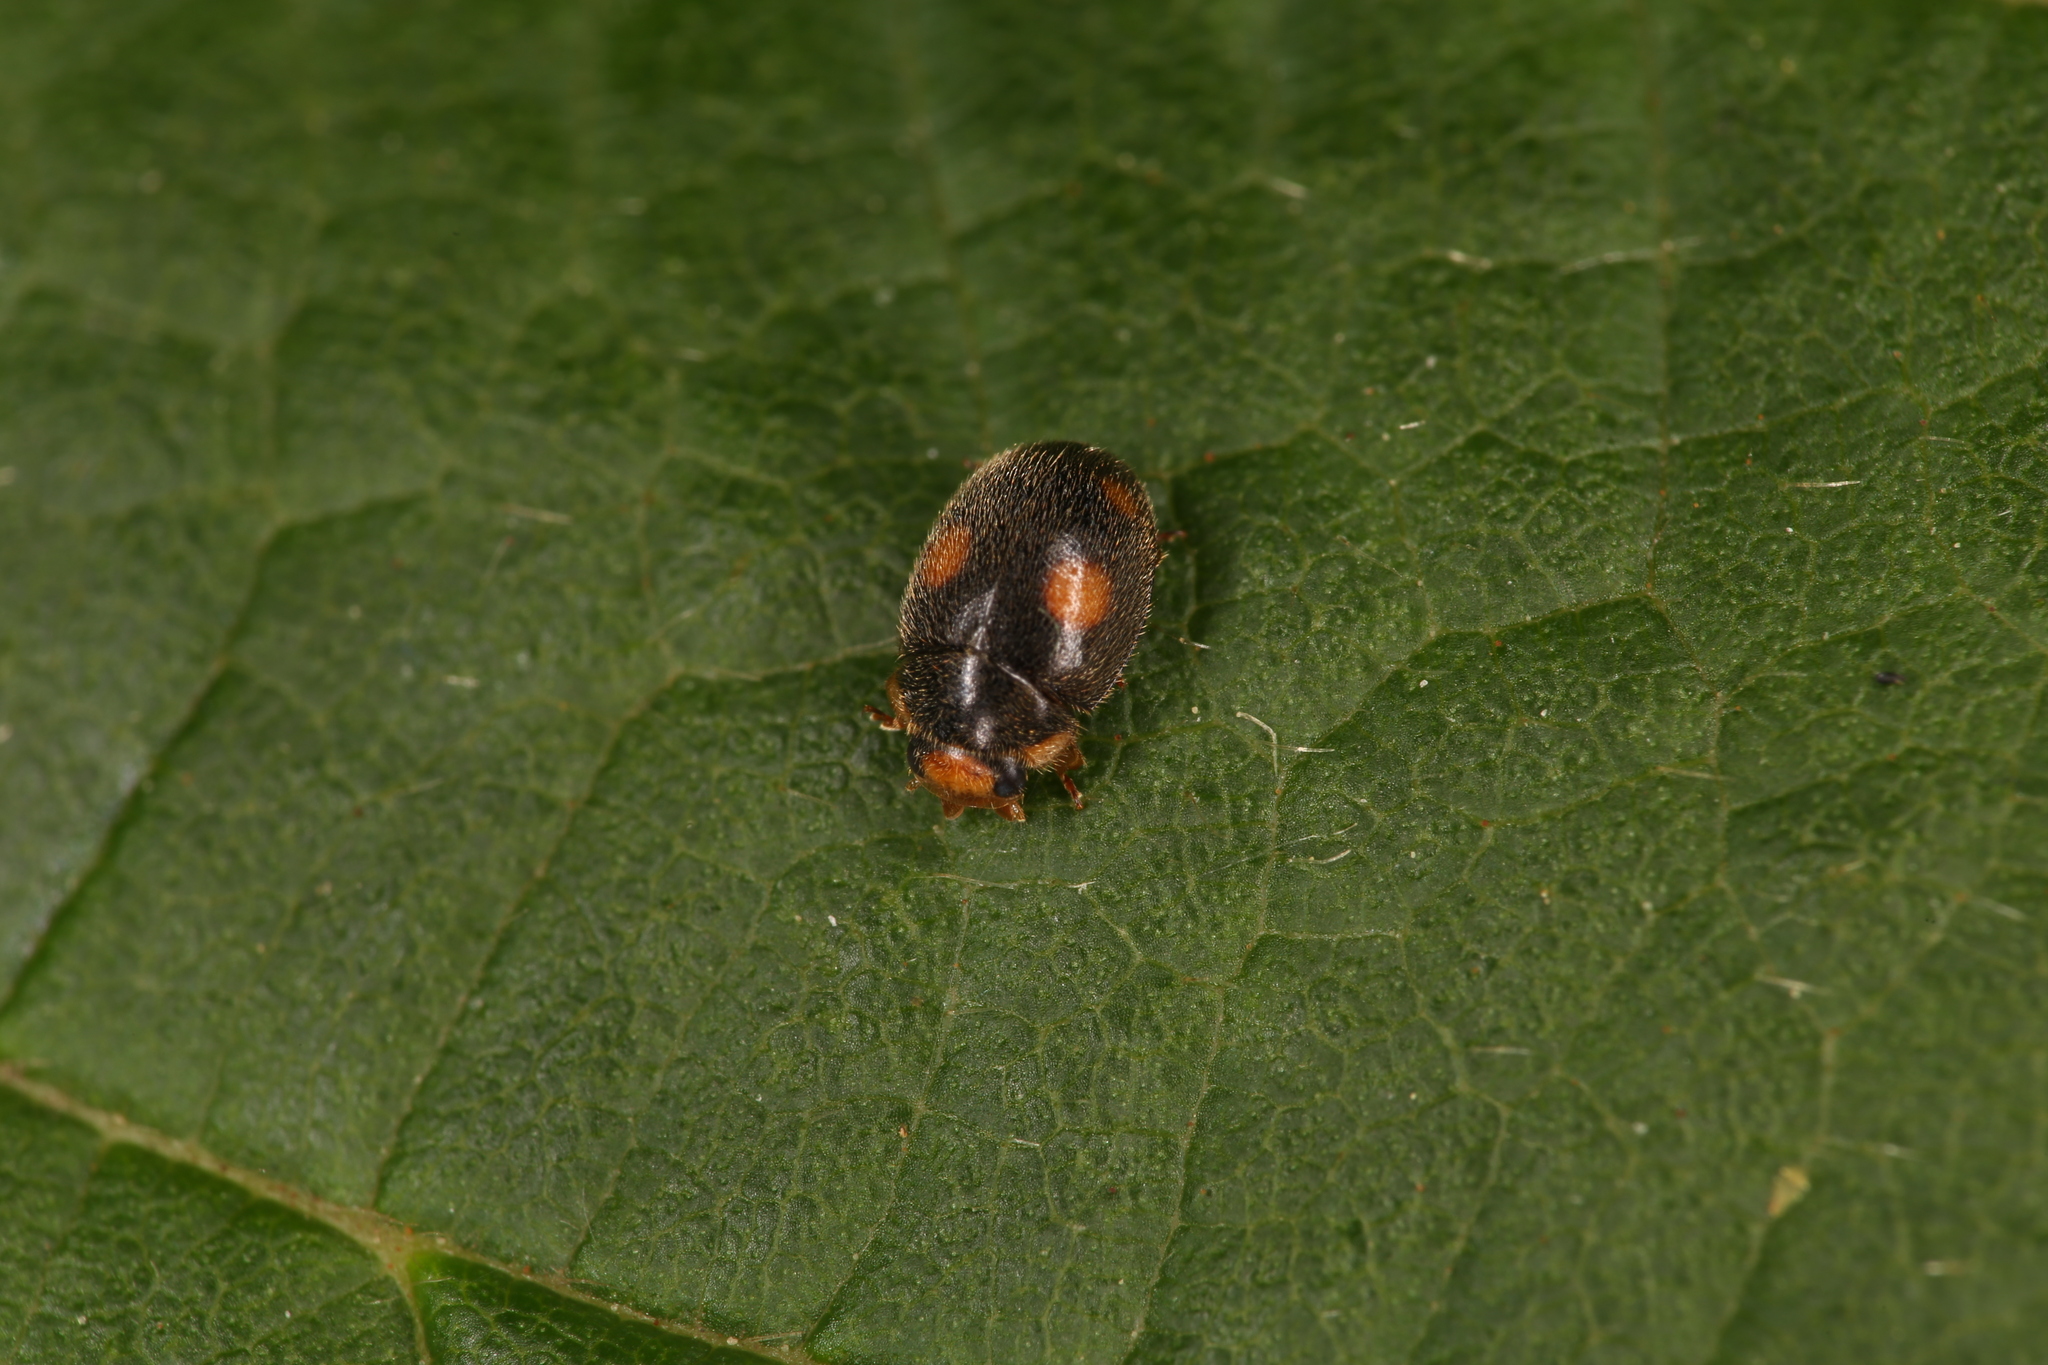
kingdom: Animalia
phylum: Arthropoda
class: Insecta
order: Coleoptera
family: Coccinellidae
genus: Platynaspis
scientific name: Platynaspis luteorubra
